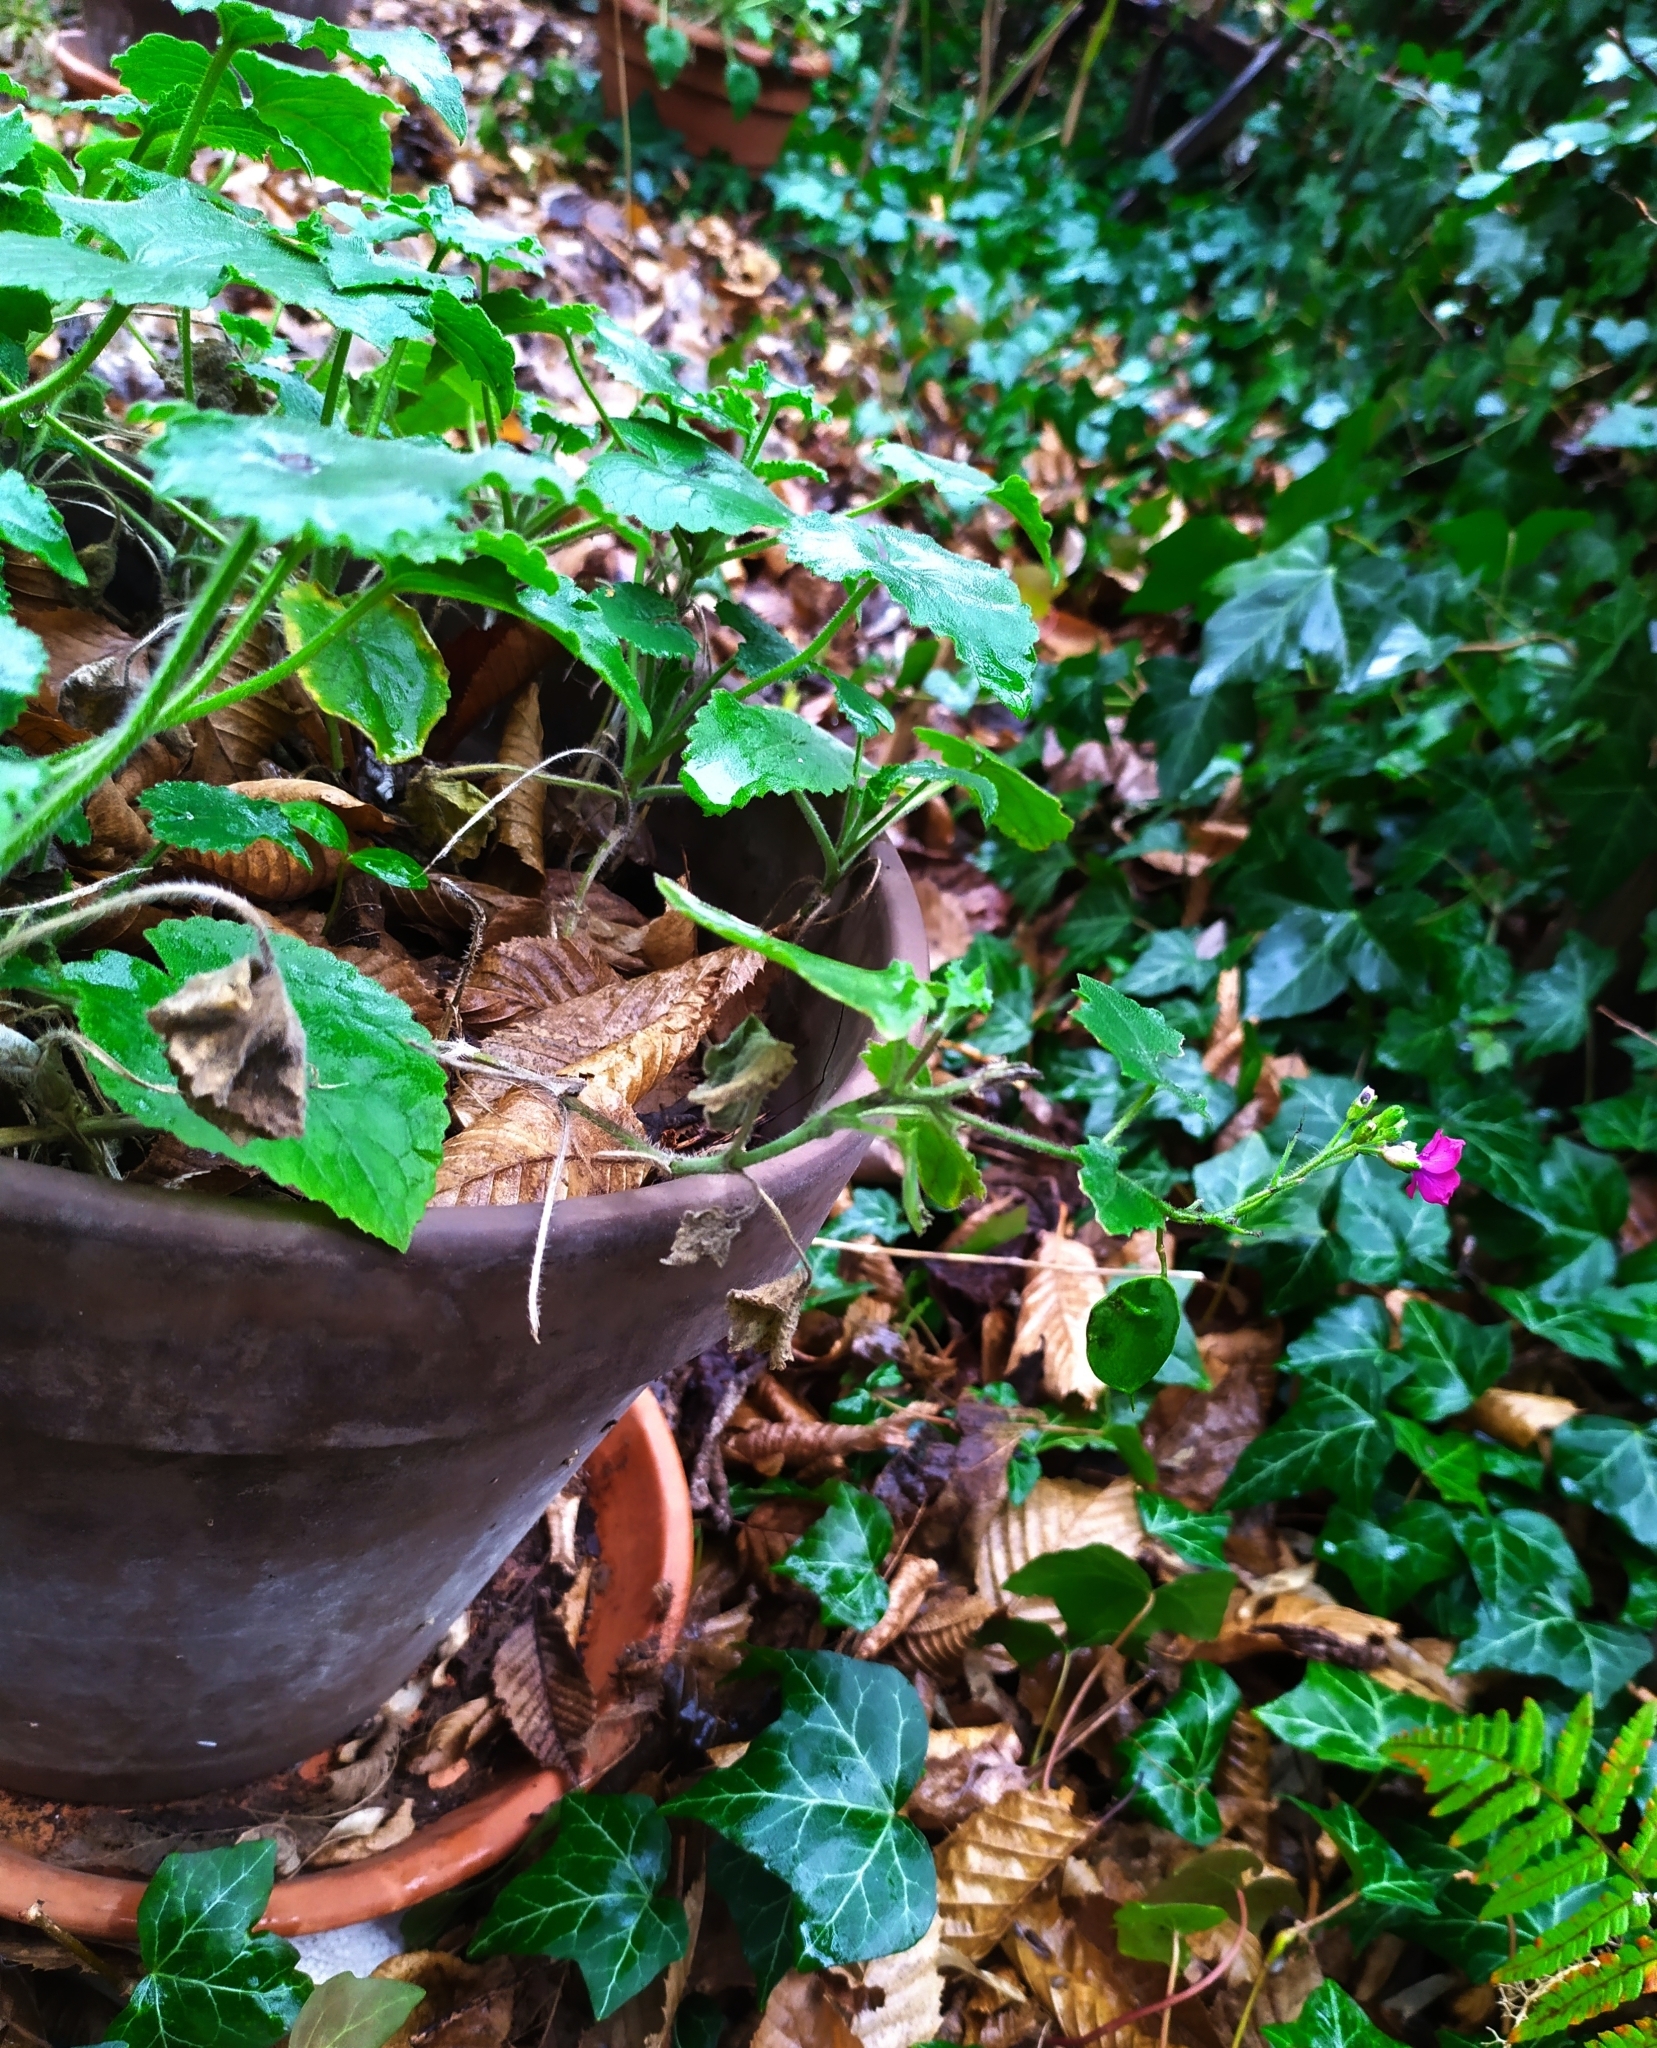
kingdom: Plantae
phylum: Tracheophyta
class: Magnoliopsida
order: Brassicales
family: Brassicaceae
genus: Lunaria
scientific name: Lunaria annua
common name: Honesty
